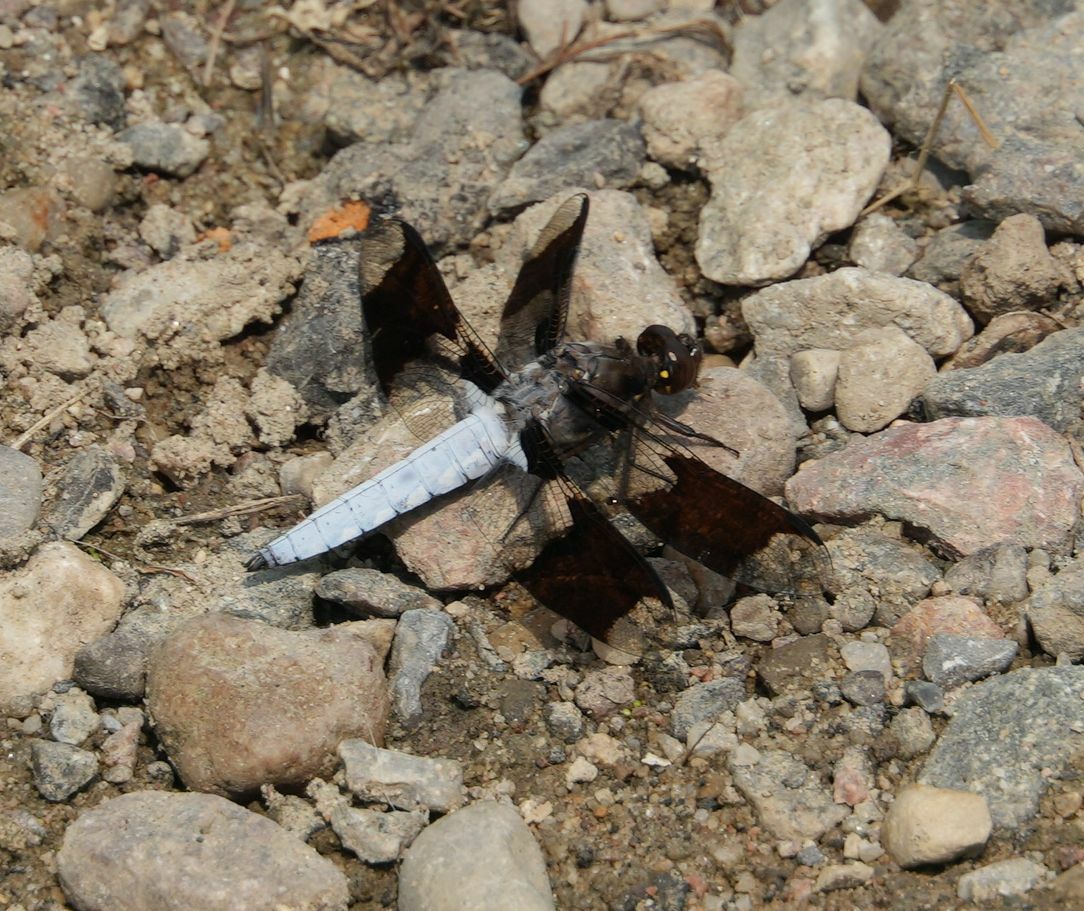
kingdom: Animalia
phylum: Arthropoda
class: Insecta
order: Odonata
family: Libellulidae
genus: Plathemis
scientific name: Plathemis lydia
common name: Common whitetail
